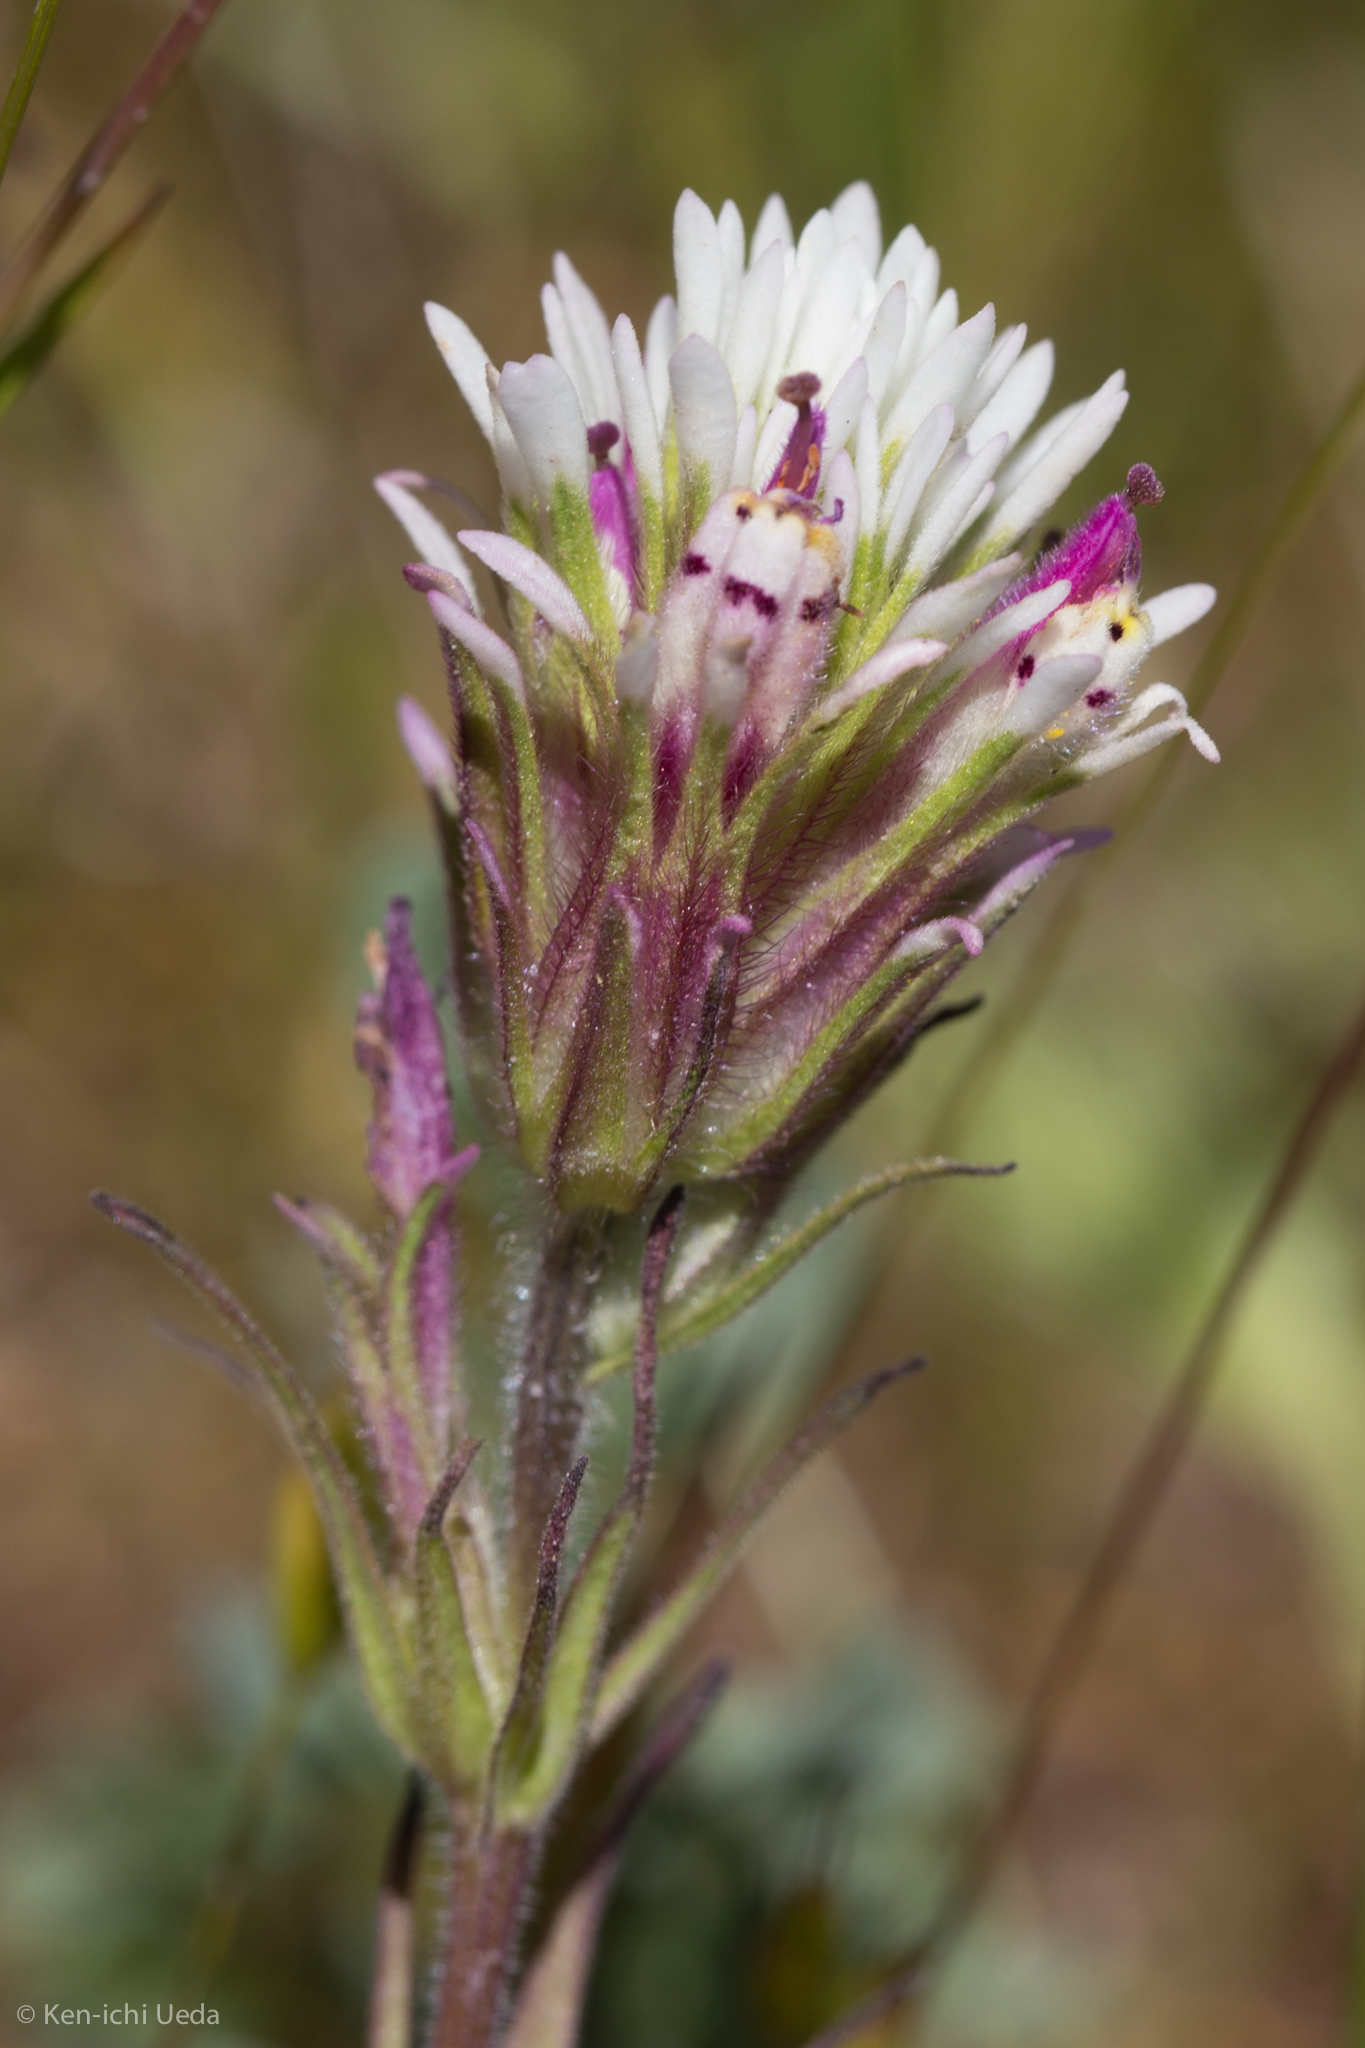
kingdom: Plantae
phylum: Tracheophyta
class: Magnoliopsida
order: Lamiales
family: Orobanchaceae
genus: Castilleja
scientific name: Castilleja densiflora
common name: Dense-flower indian paintbrush
